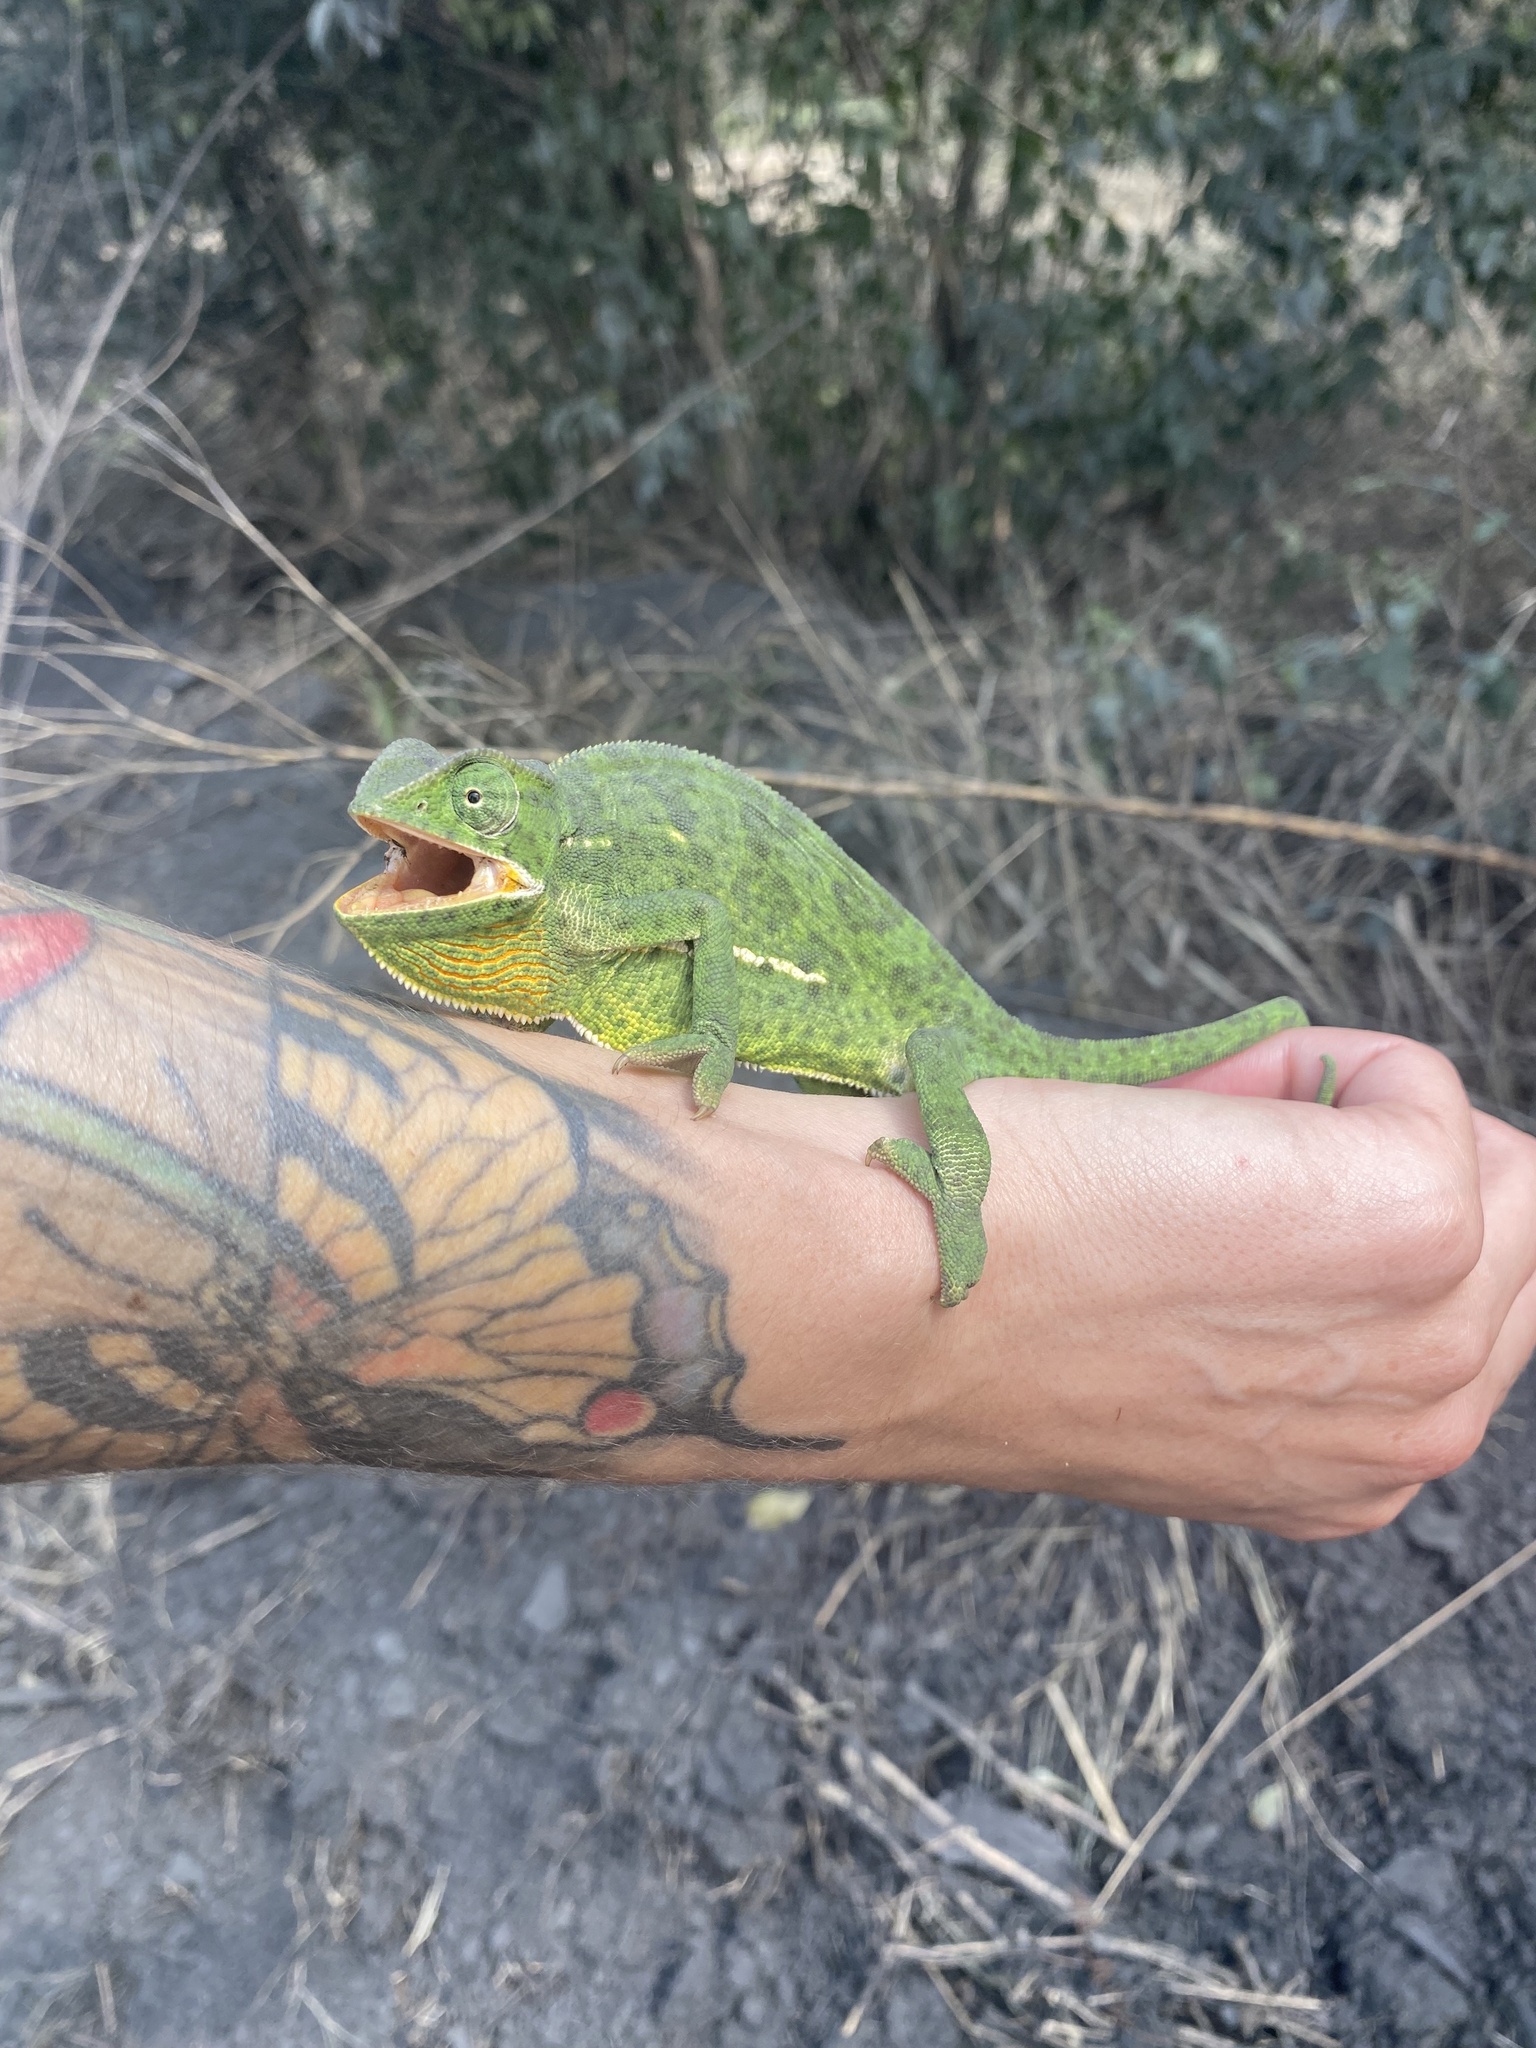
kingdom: Animalia
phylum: Chordata
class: Squamata
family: Chamaeleonidae
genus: Chamaeleo
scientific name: Chamaeleo dilepis
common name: Flapneck chameleon
